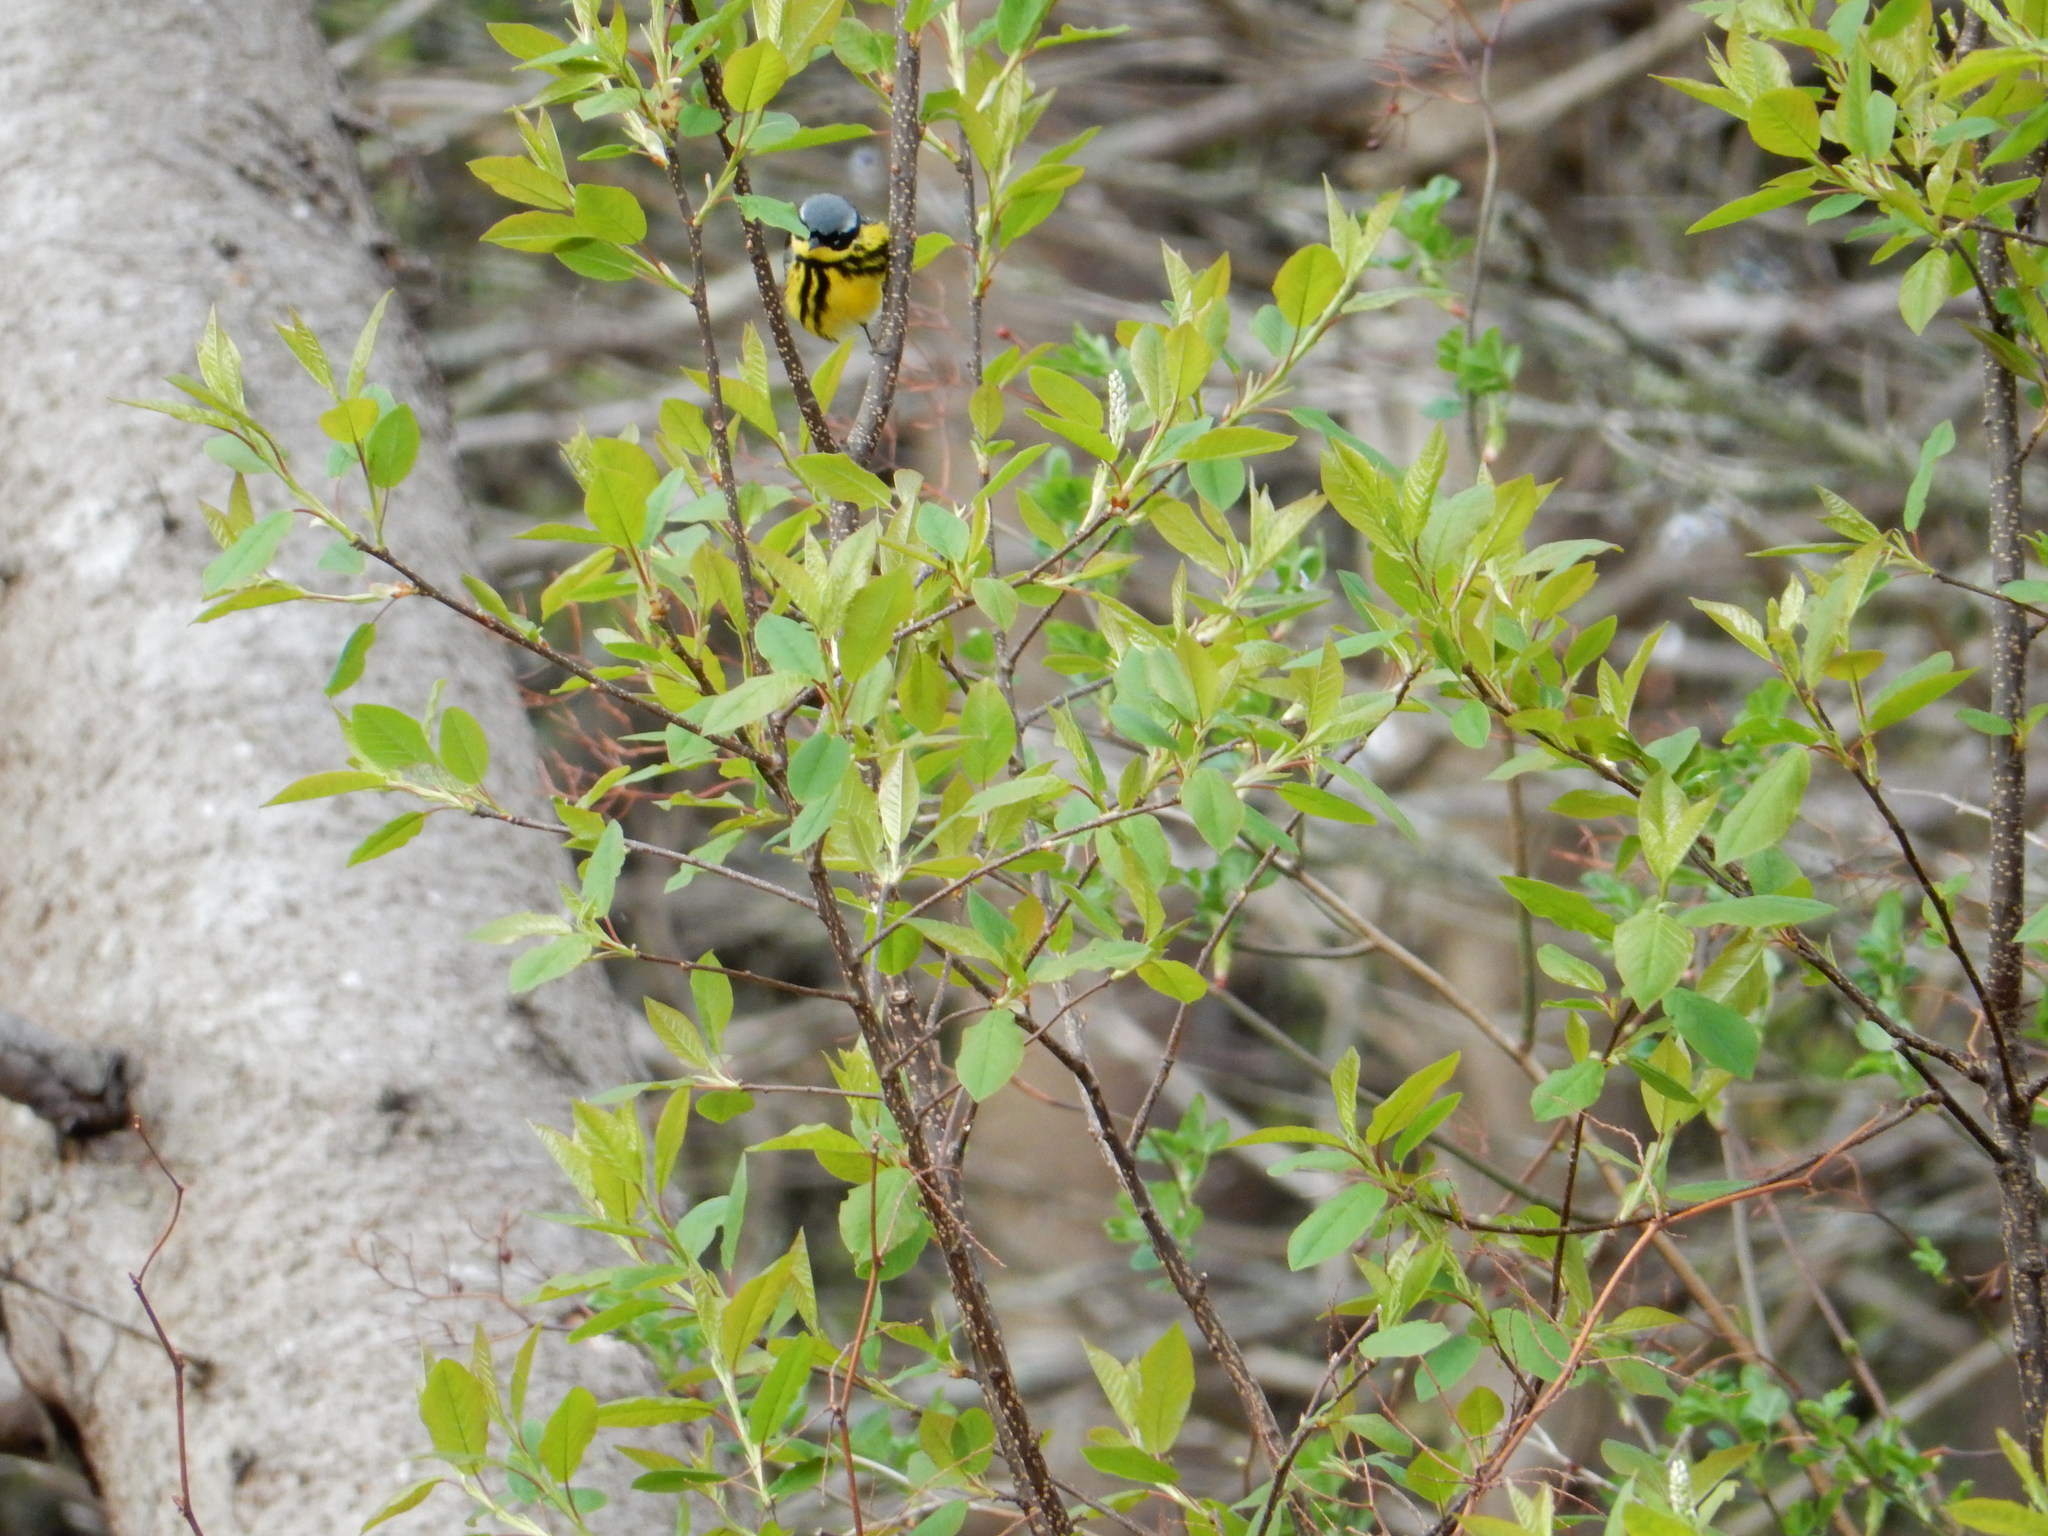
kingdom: Animalia
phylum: Chordata
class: Aves
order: Passeriformes
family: Parulidae
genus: Setophaga
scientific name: Setophaga magnolia
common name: Magnolia warbler
